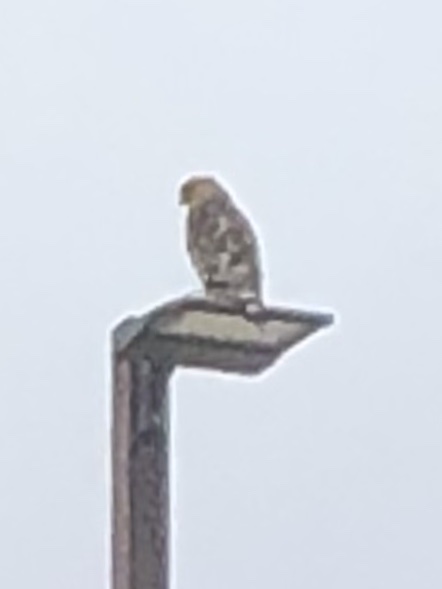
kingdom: Animalia
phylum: Chordata
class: Aves
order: Accipitriformes
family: Accipitridae
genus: Buteo
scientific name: Buteo lineatus
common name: Red-shouldered hawk
